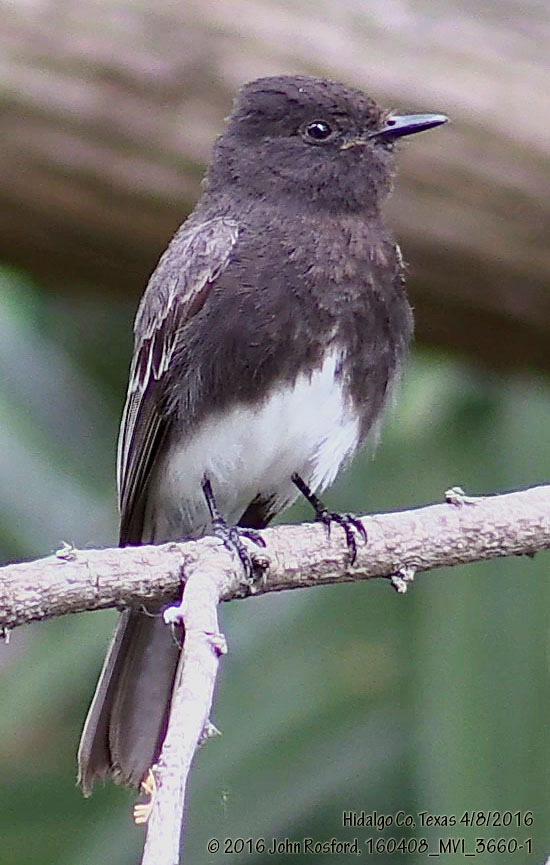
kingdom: Animalia
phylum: Chordata
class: Aves
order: Passeriformes
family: Tyrannidae
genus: Sayornis
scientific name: Sayornis nigricans
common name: Black phoebe
